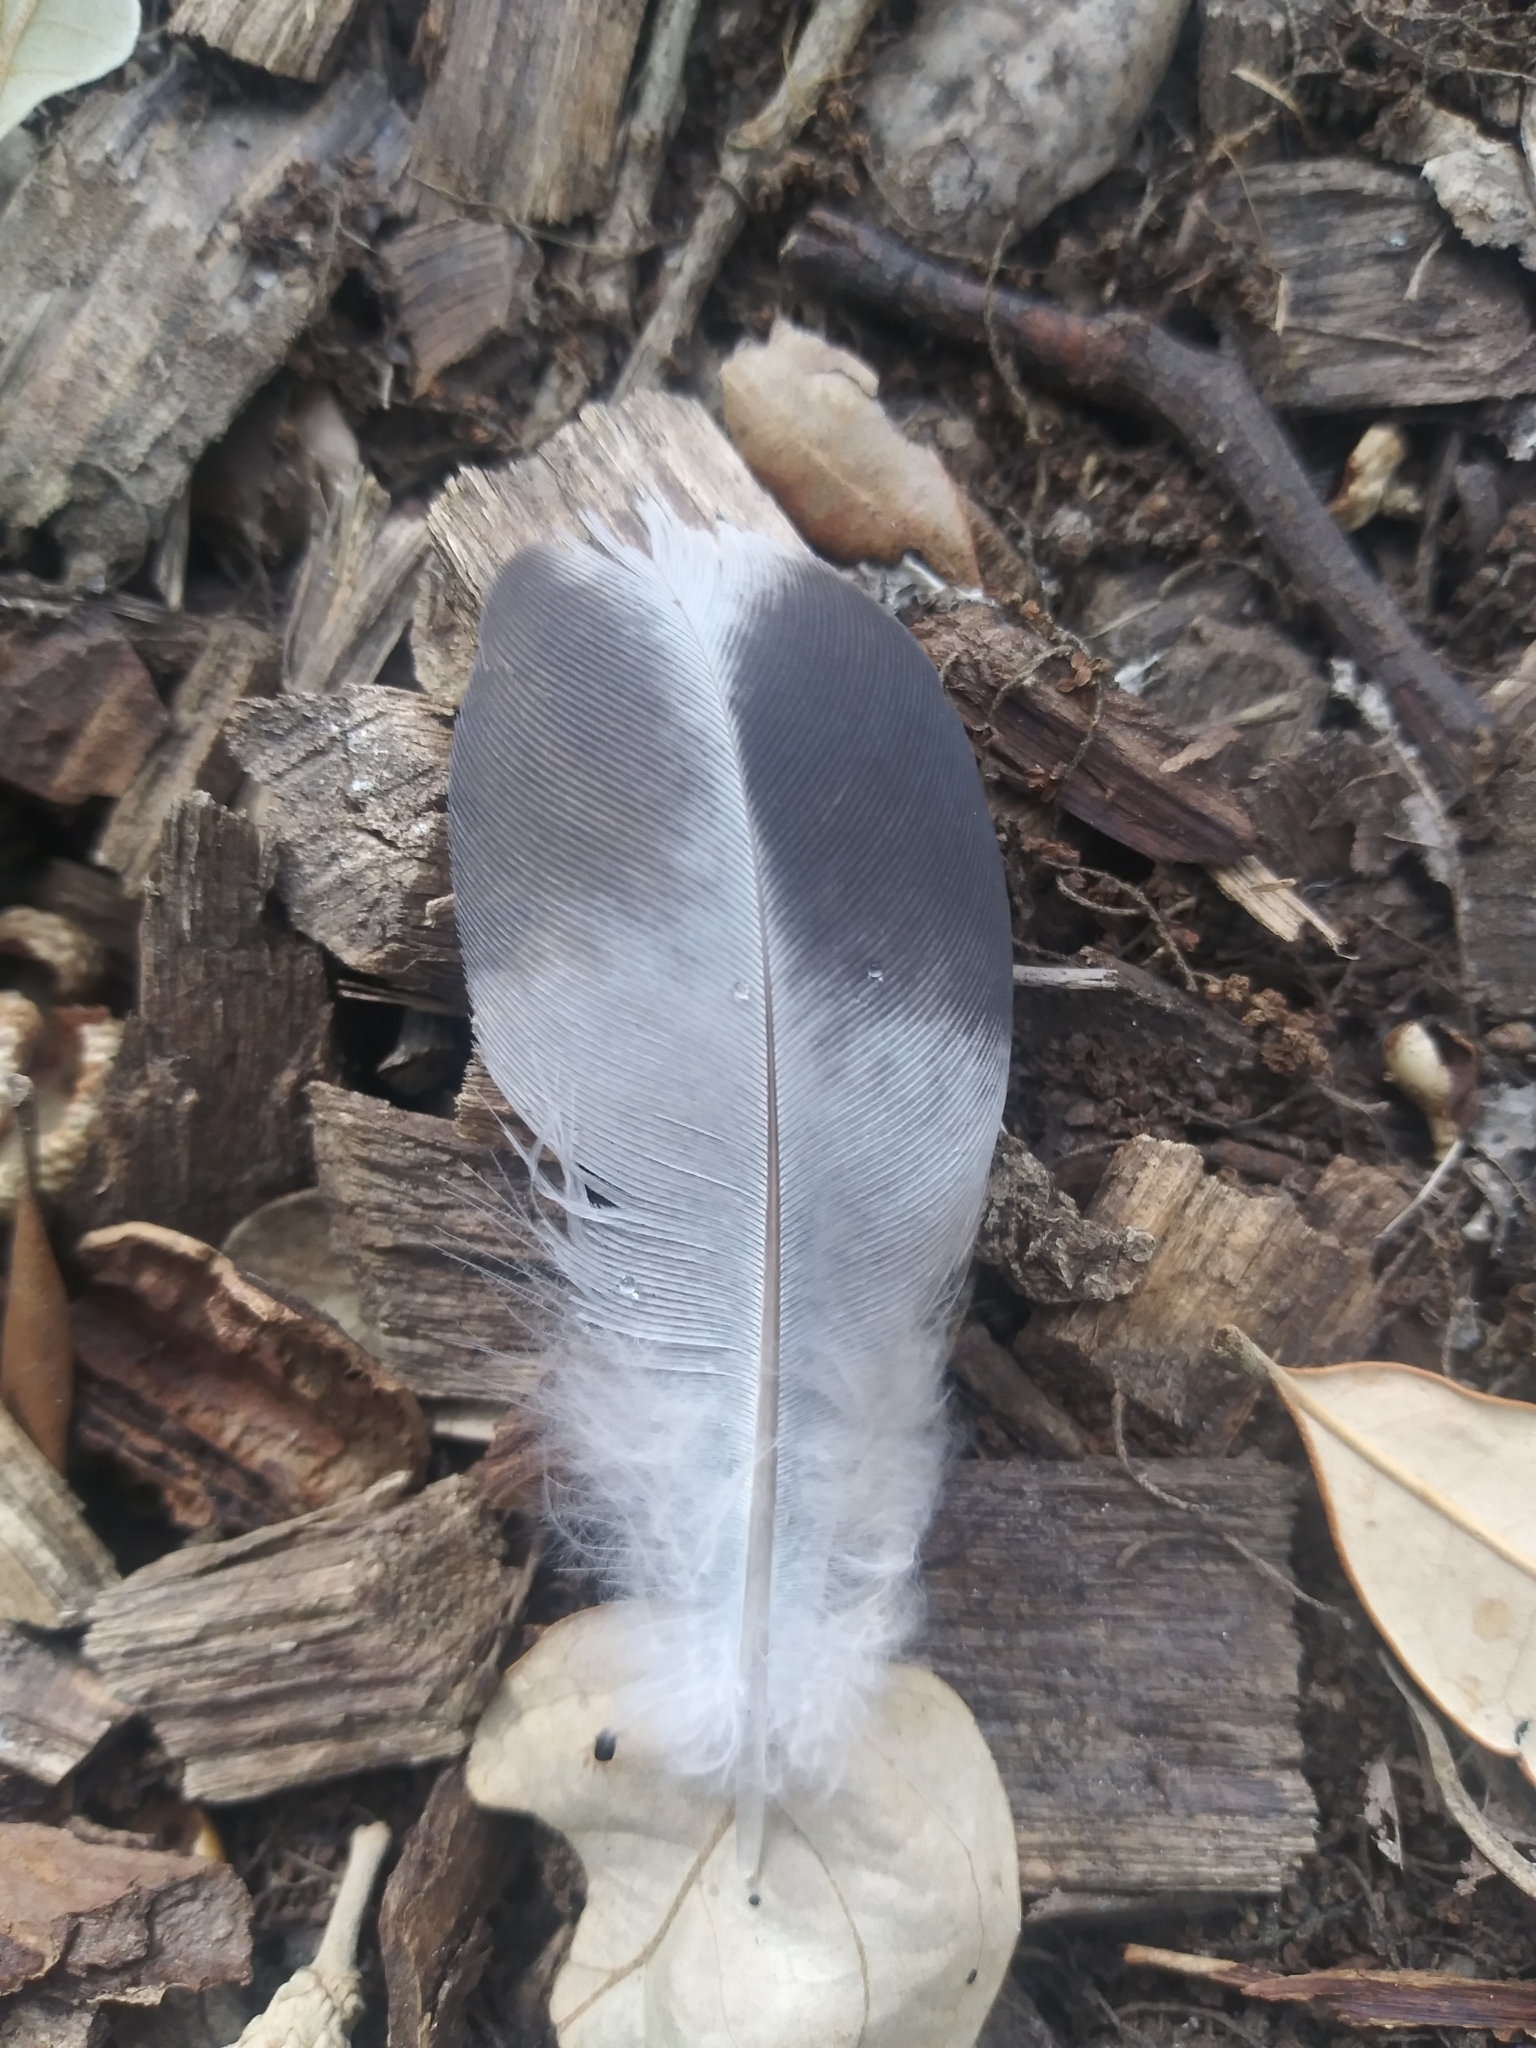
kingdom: Animalia
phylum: Chordata
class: Aves
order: Columbiformes
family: Columbidae
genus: Columba
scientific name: Columba livia
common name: Rock pigeon
